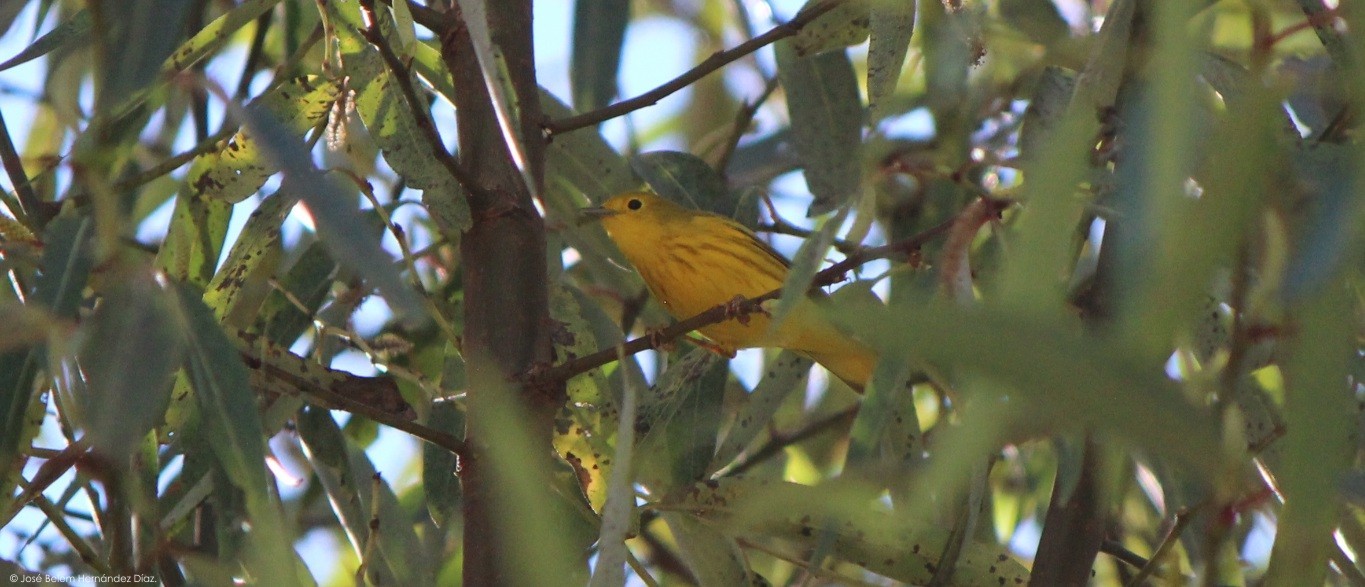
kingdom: Animalia
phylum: Chordata
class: Aves
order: Passeriformes
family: Parulidae
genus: Setophaga
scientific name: Setophaga petechia
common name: Yellow warbler
